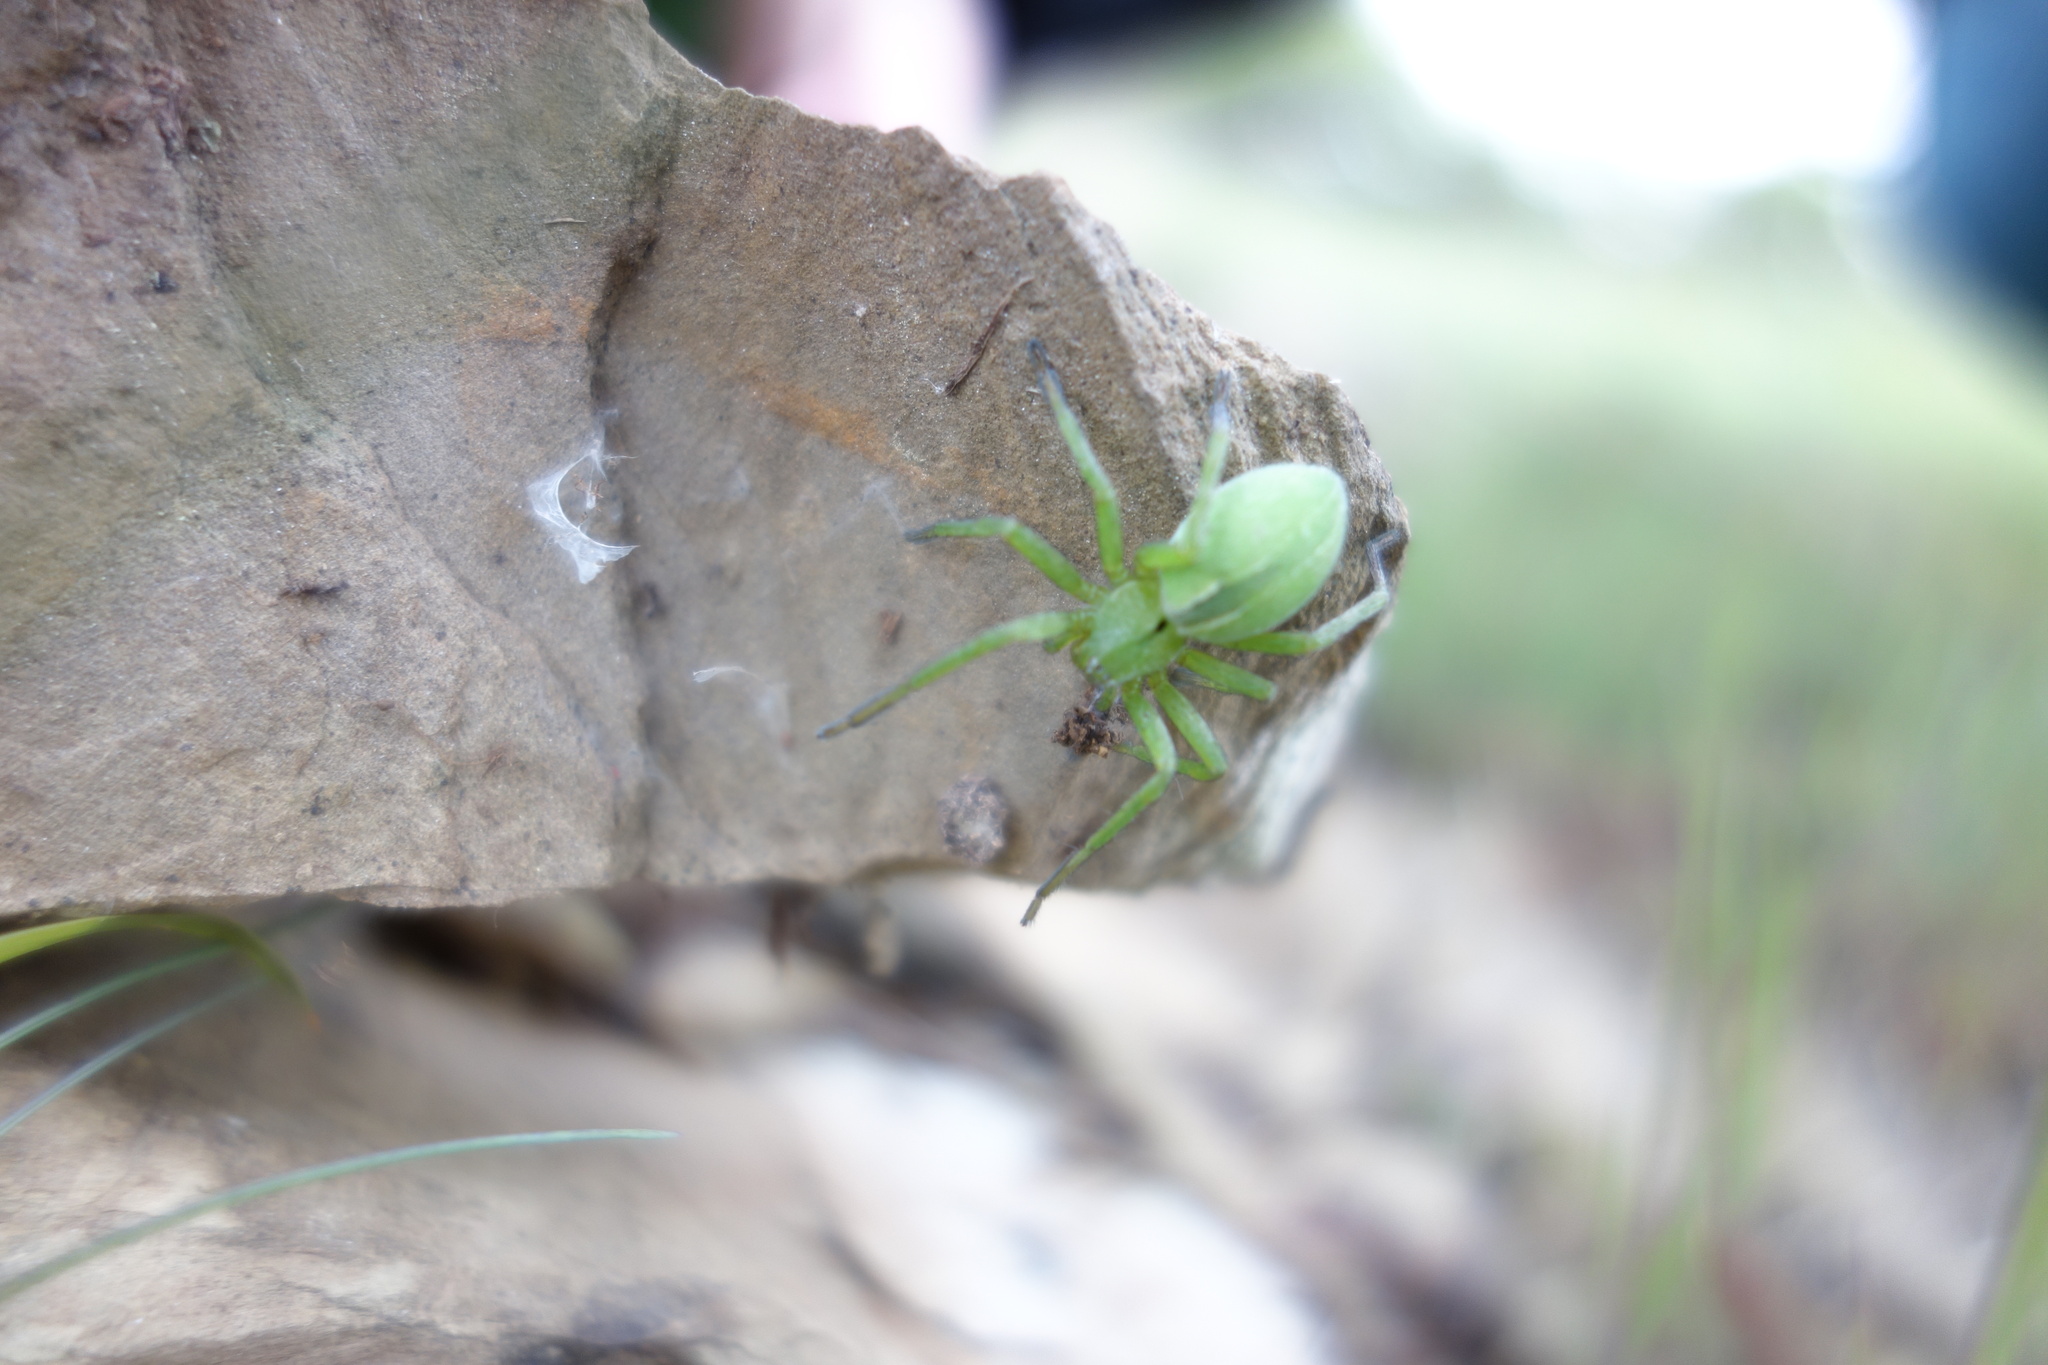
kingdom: Animalia
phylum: Arthropoda
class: Arachnida
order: Araneae
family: Sparassidae
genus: Micrommata
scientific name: Micrommata ligurina
